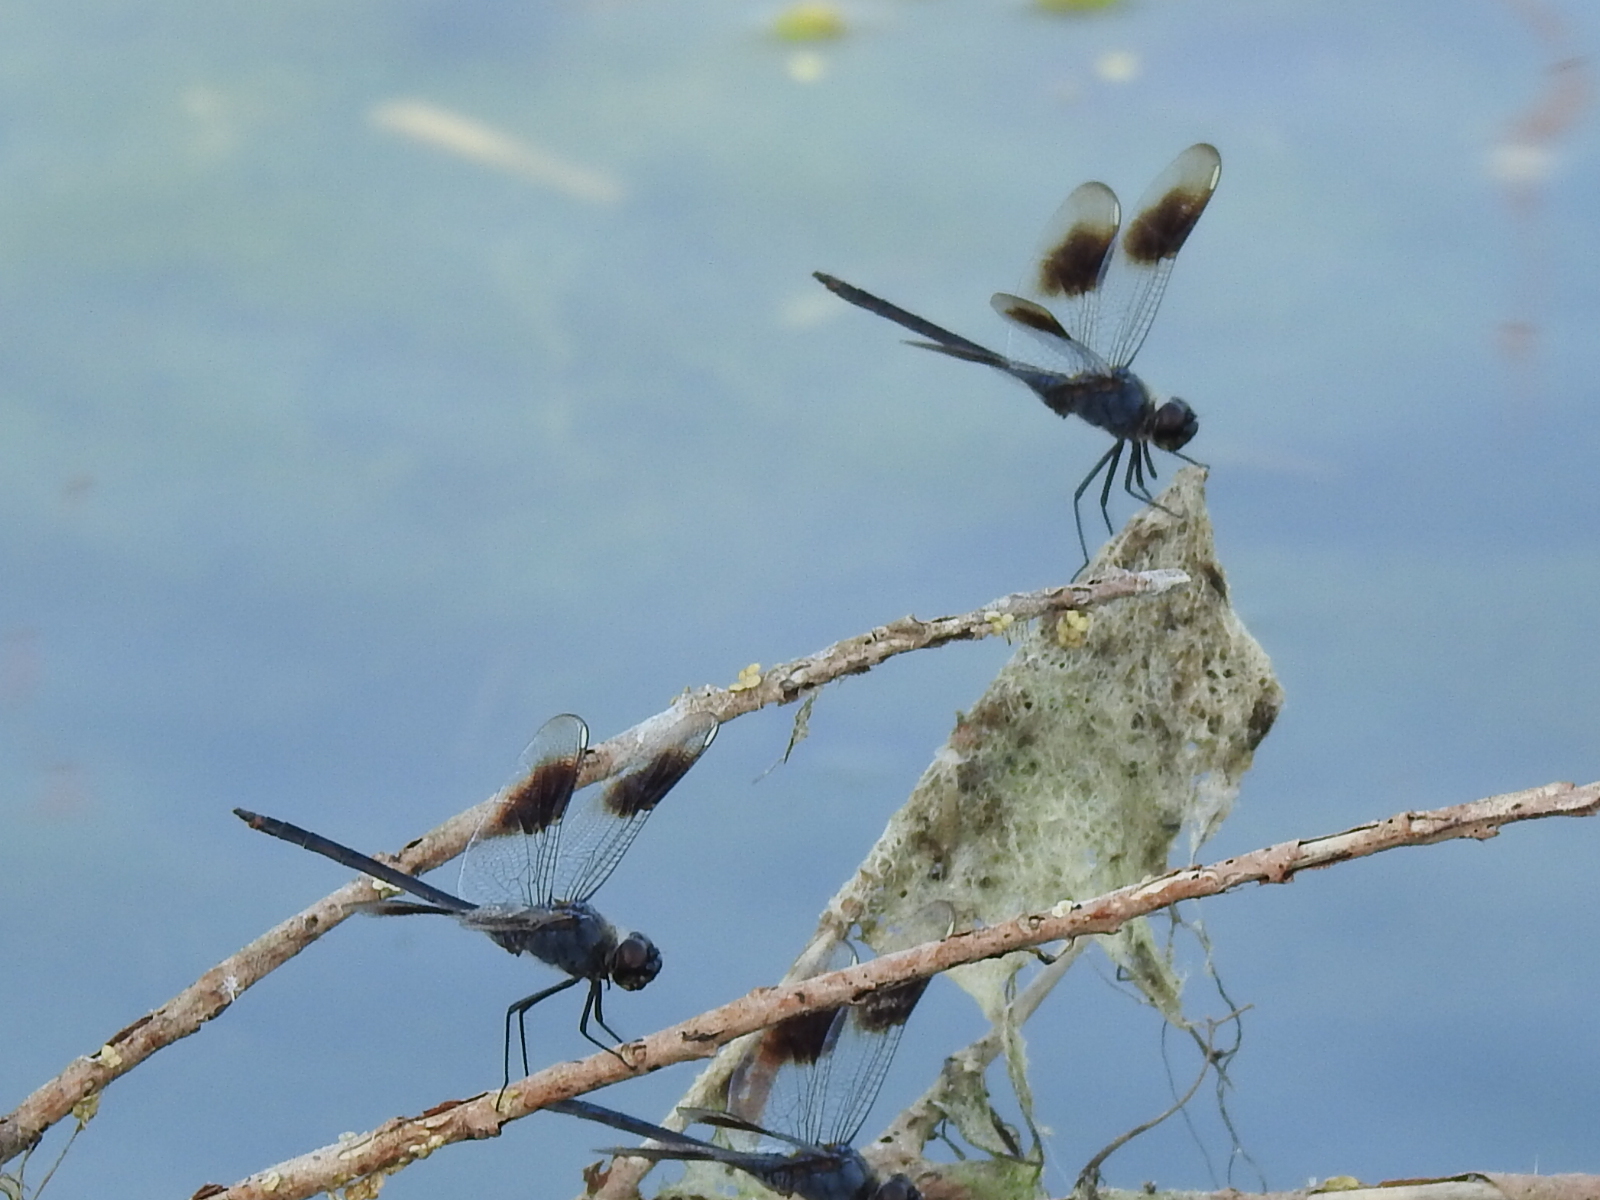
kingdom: Animalia
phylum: Arthropoda
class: Insecta
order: Odonata
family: Libellulidae
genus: Brachymesia
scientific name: Brachymesia gravida
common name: Four-spotted pennant
